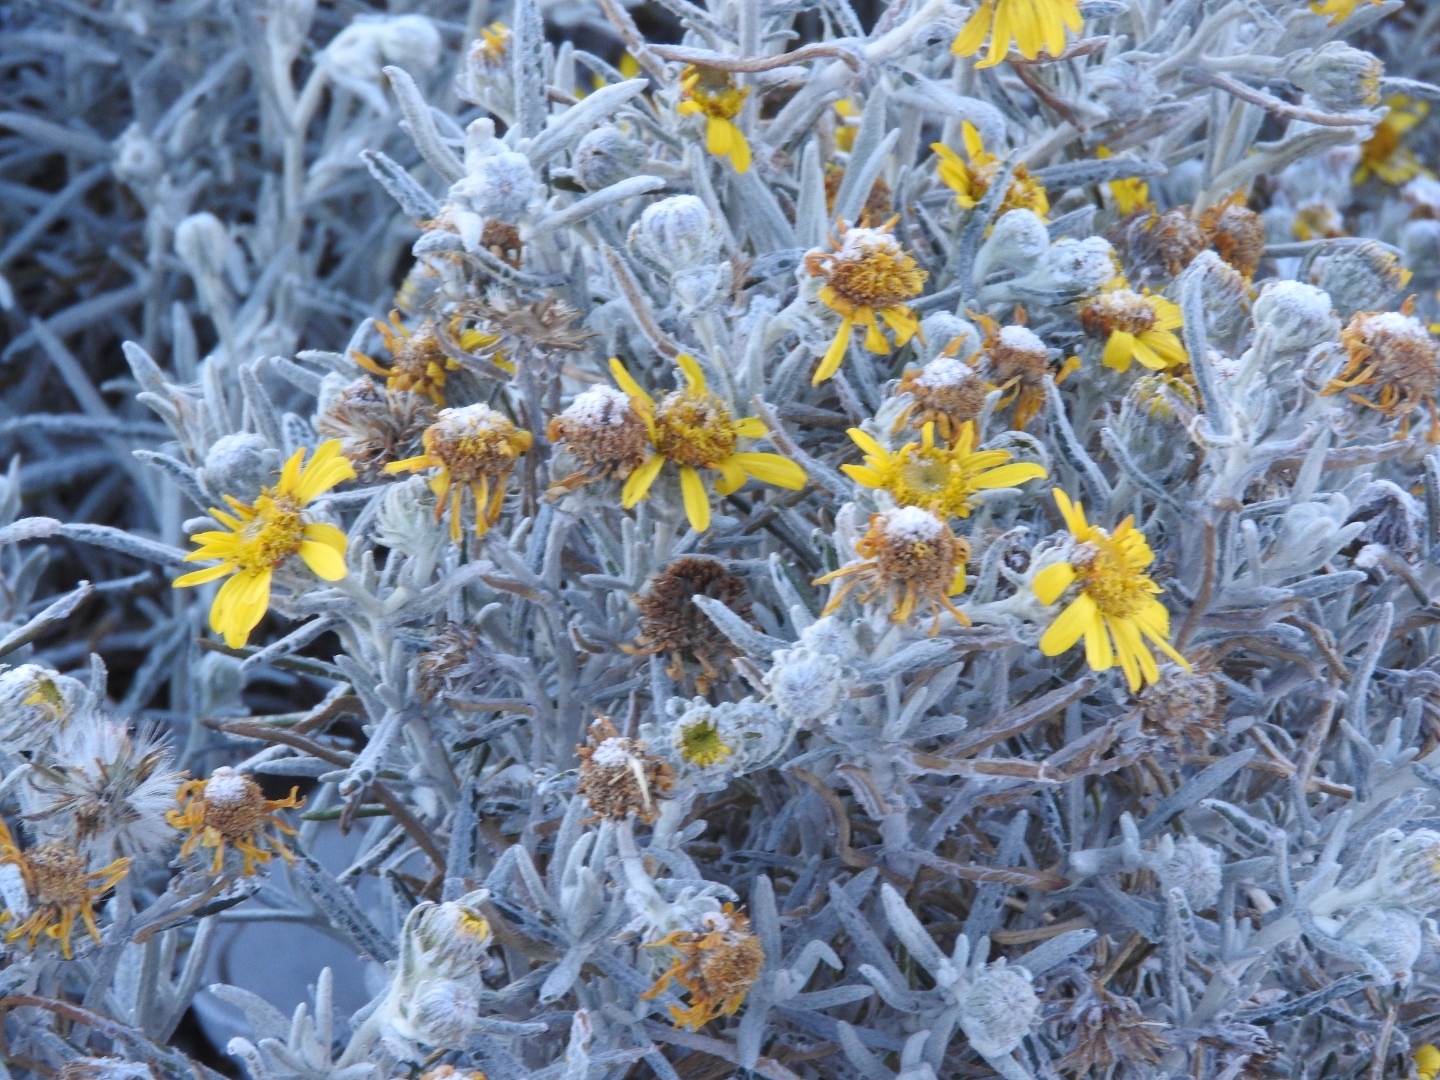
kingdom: Plantae
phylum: Tracheophyta
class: Magnoliopsida
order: Asterales
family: Asteraceae
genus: Senecio
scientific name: Senecio mairetianus
